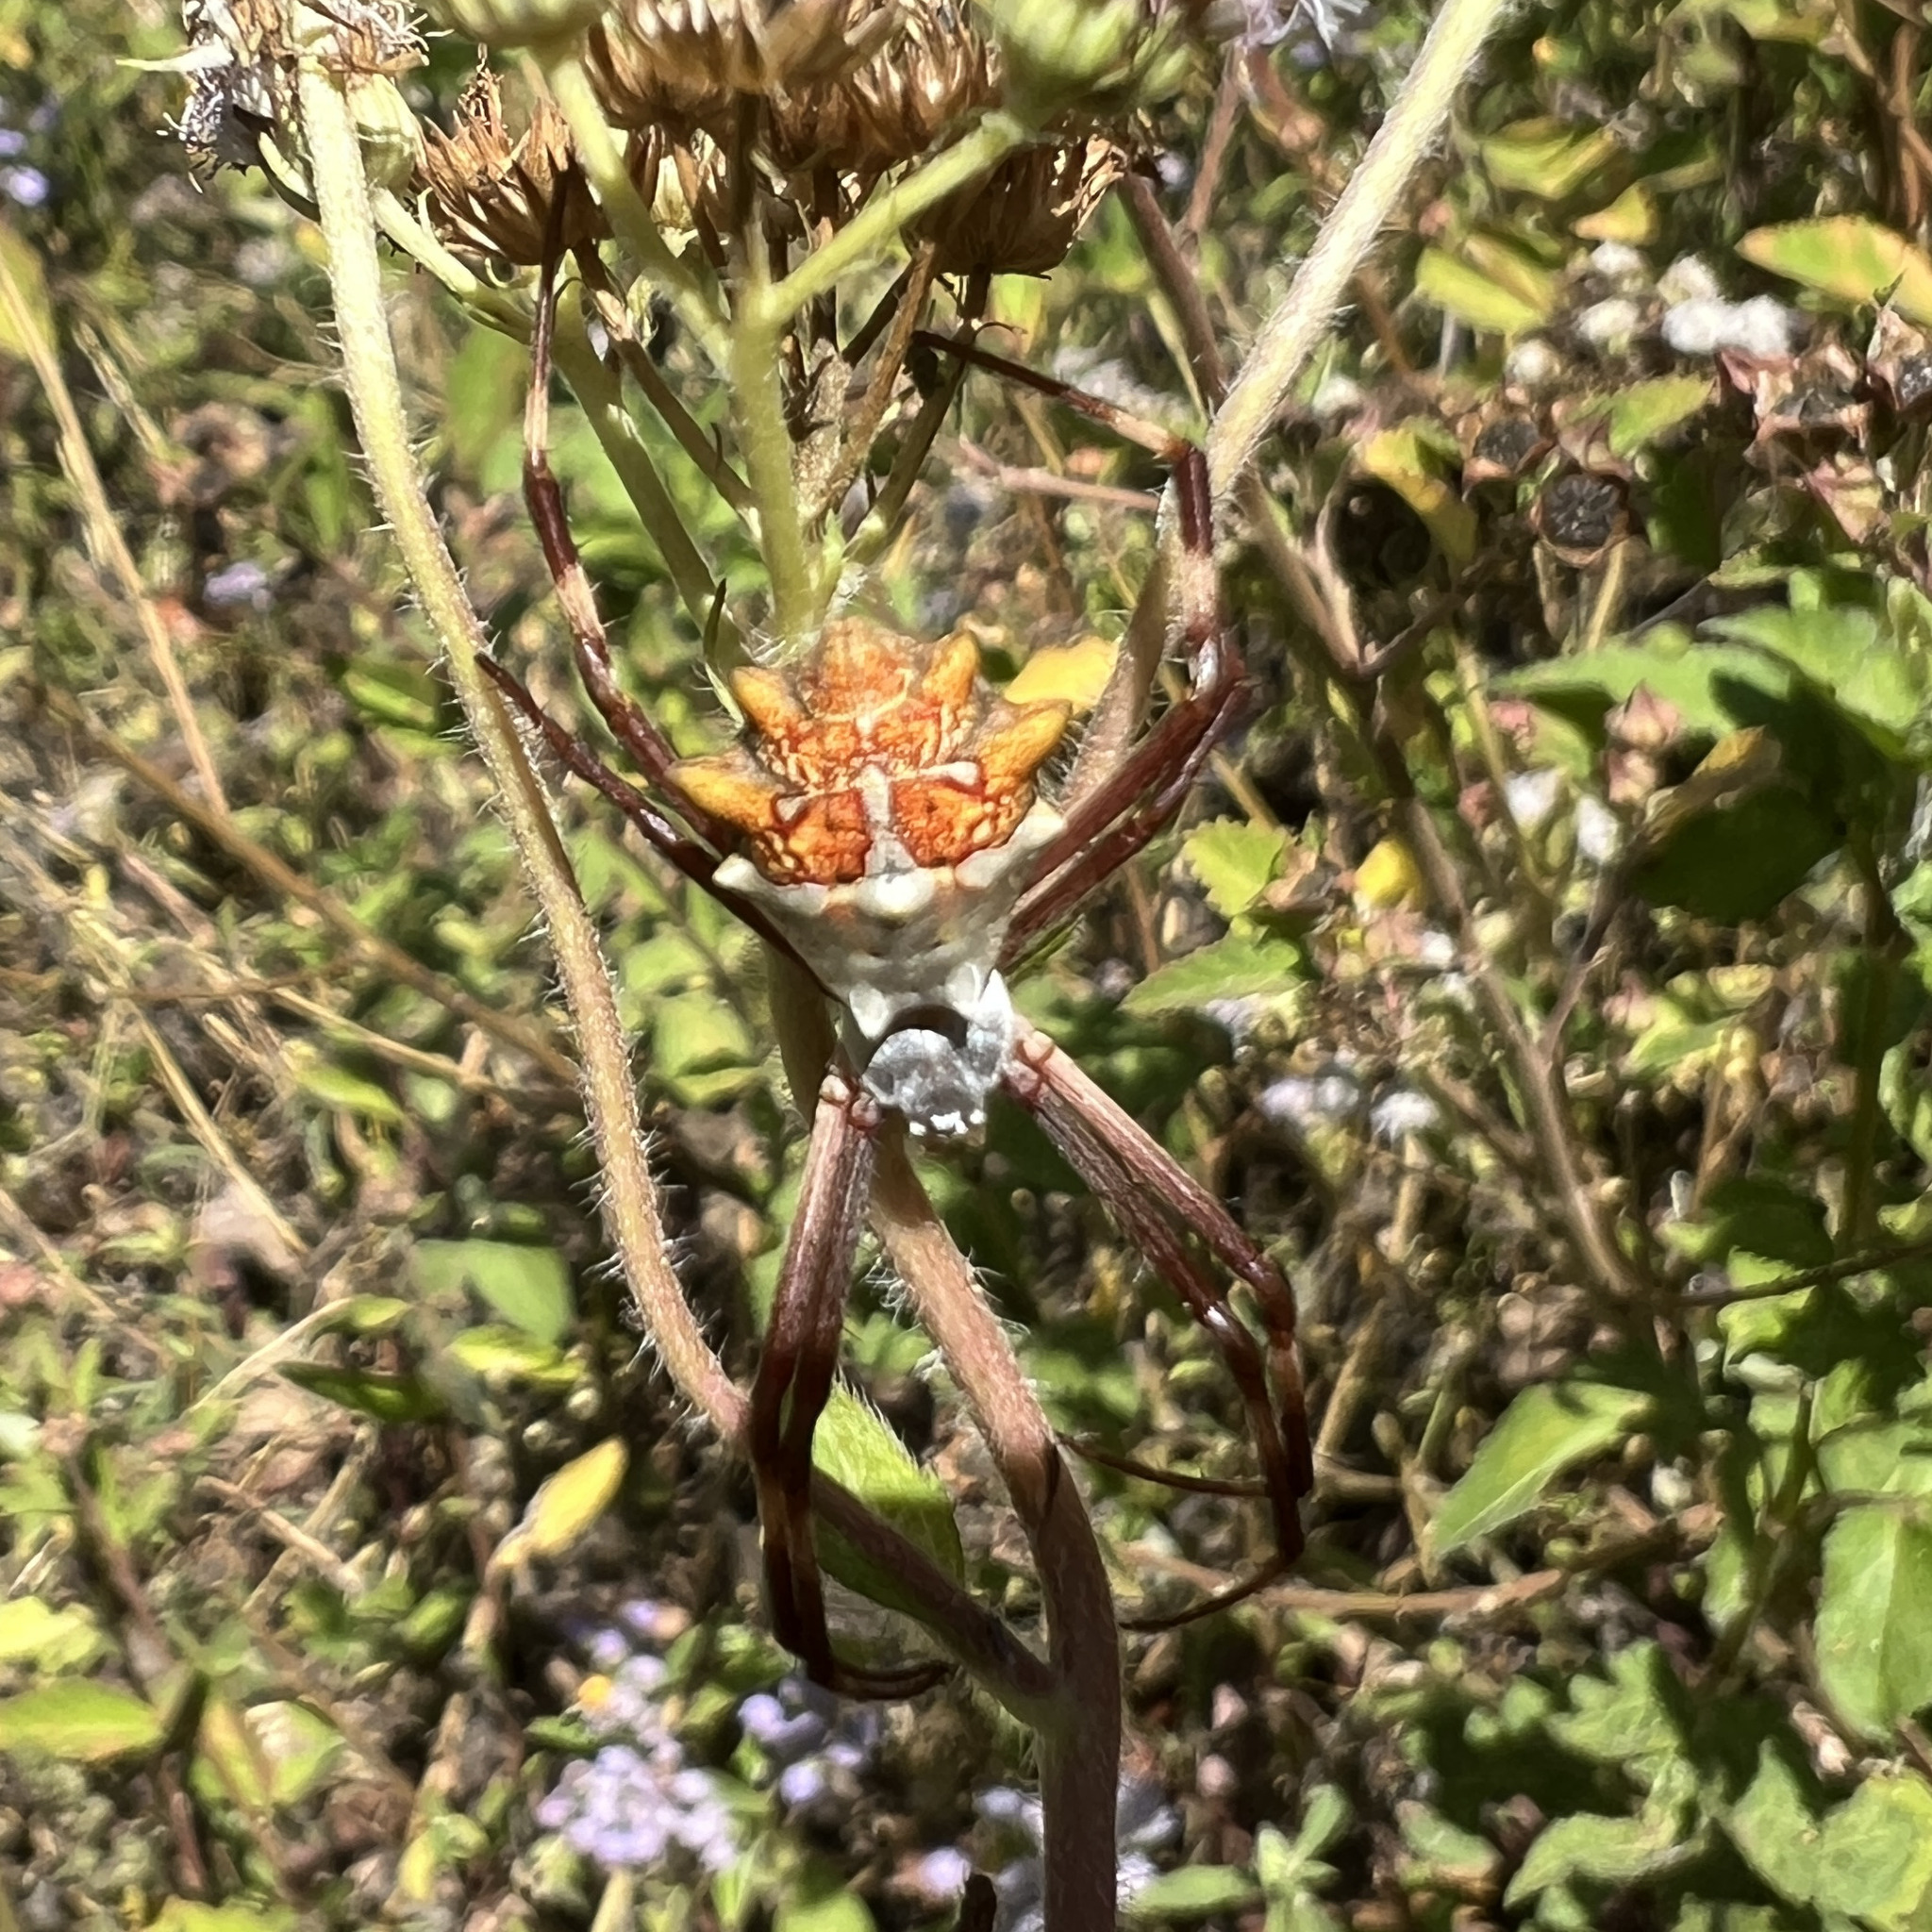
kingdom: Animalia
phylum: Arthropoda
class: Arachnida
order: Araneae
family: Araneidae
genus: Argiope
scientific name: Argiope argentata
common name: Orb weavers
